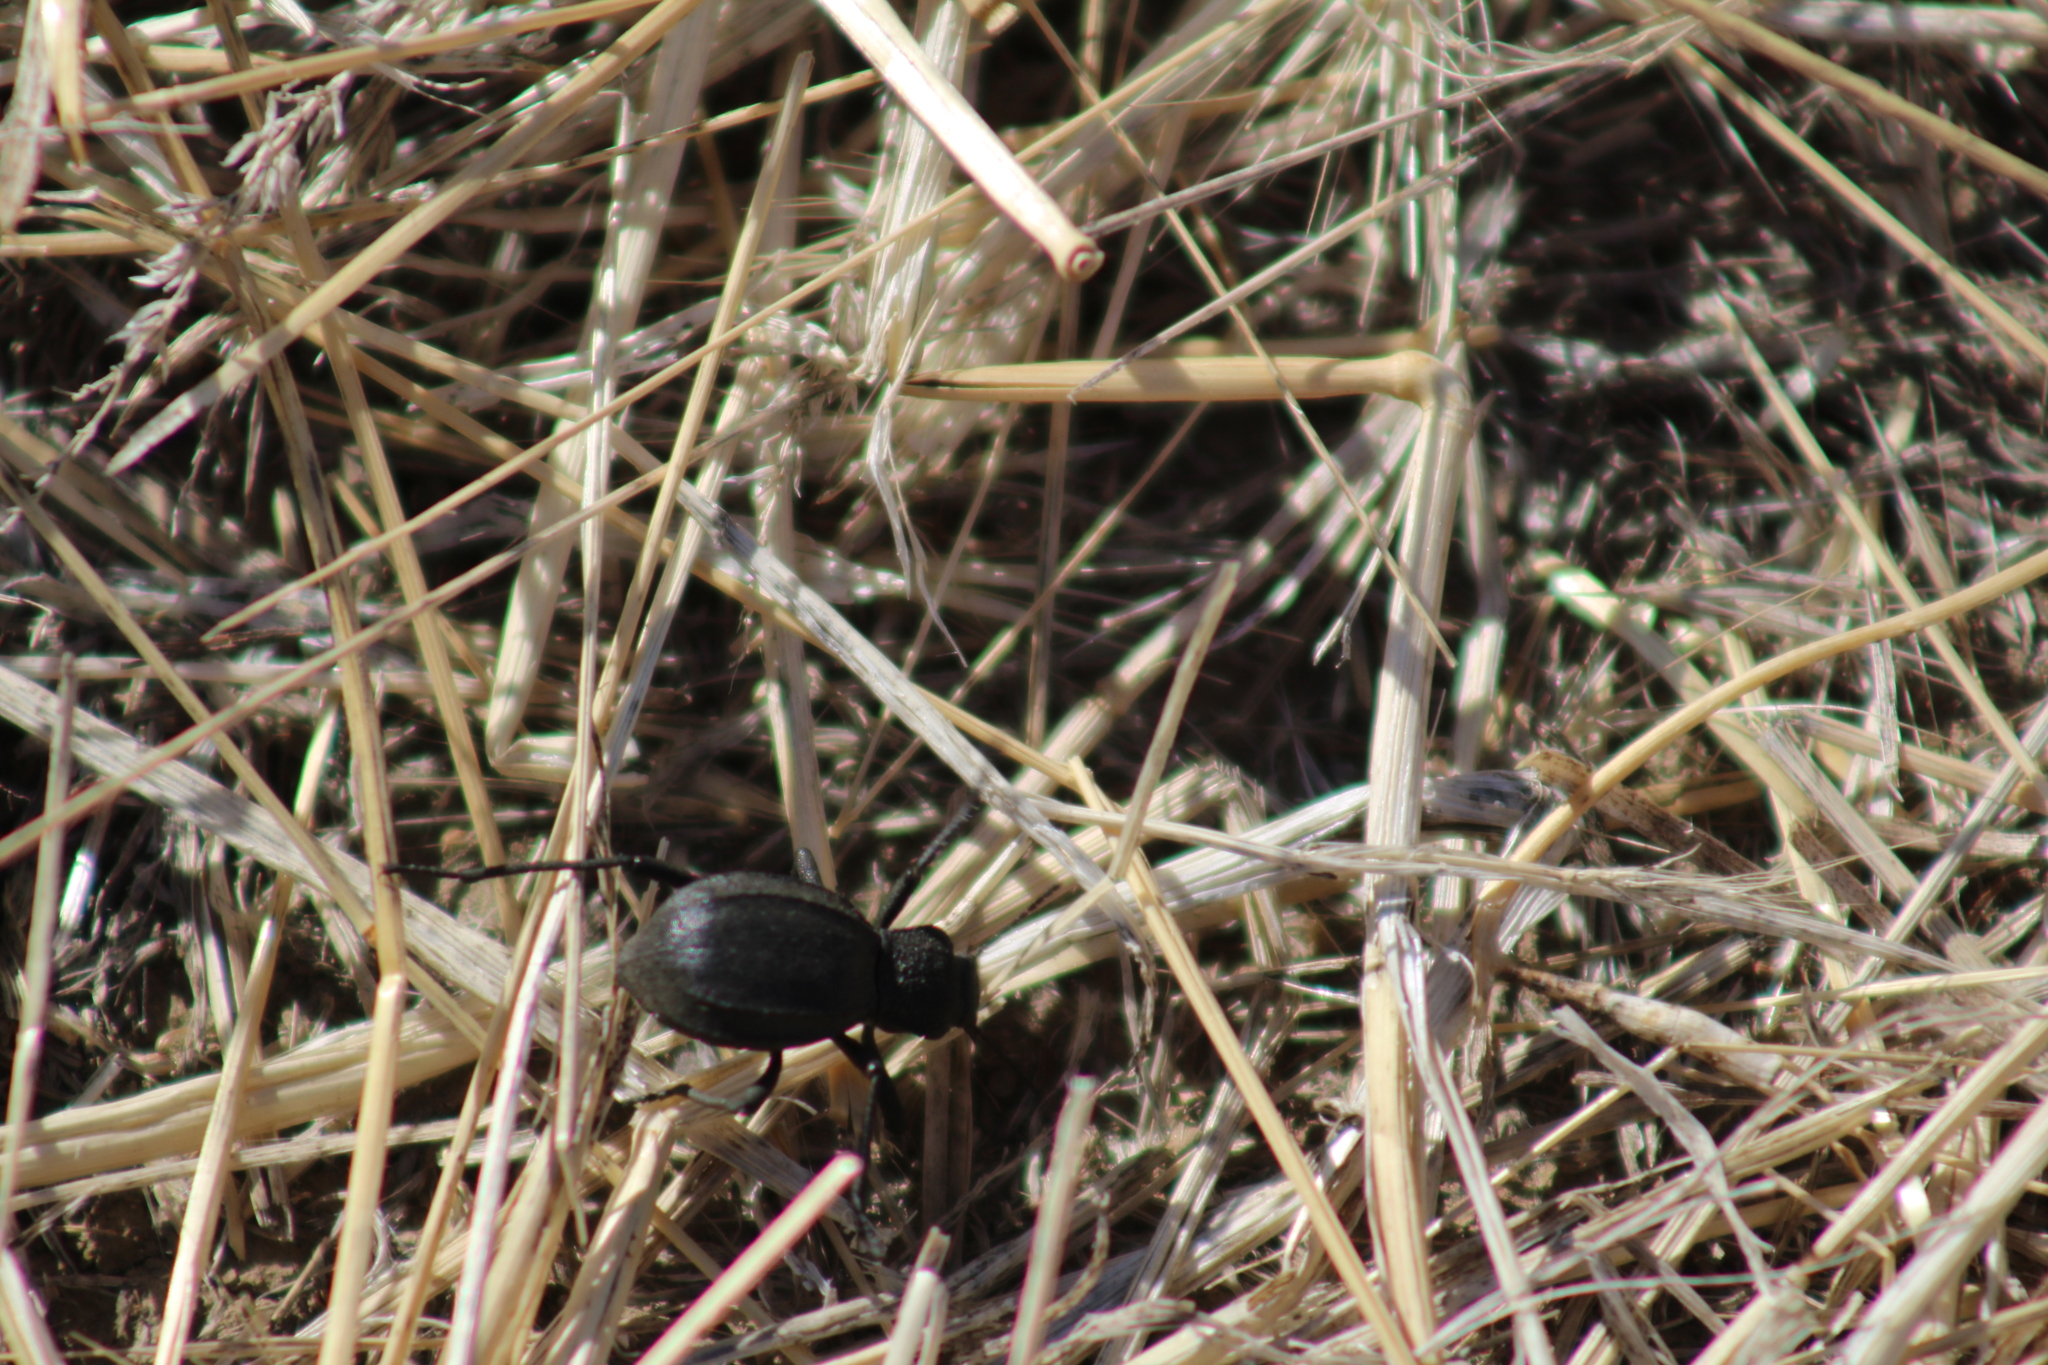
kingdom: Animalia
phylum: Arthropoda
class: Insecta
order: Coleoptera
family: Tenebrionidae
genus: Philolithus
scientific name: Philolithus densicollis
